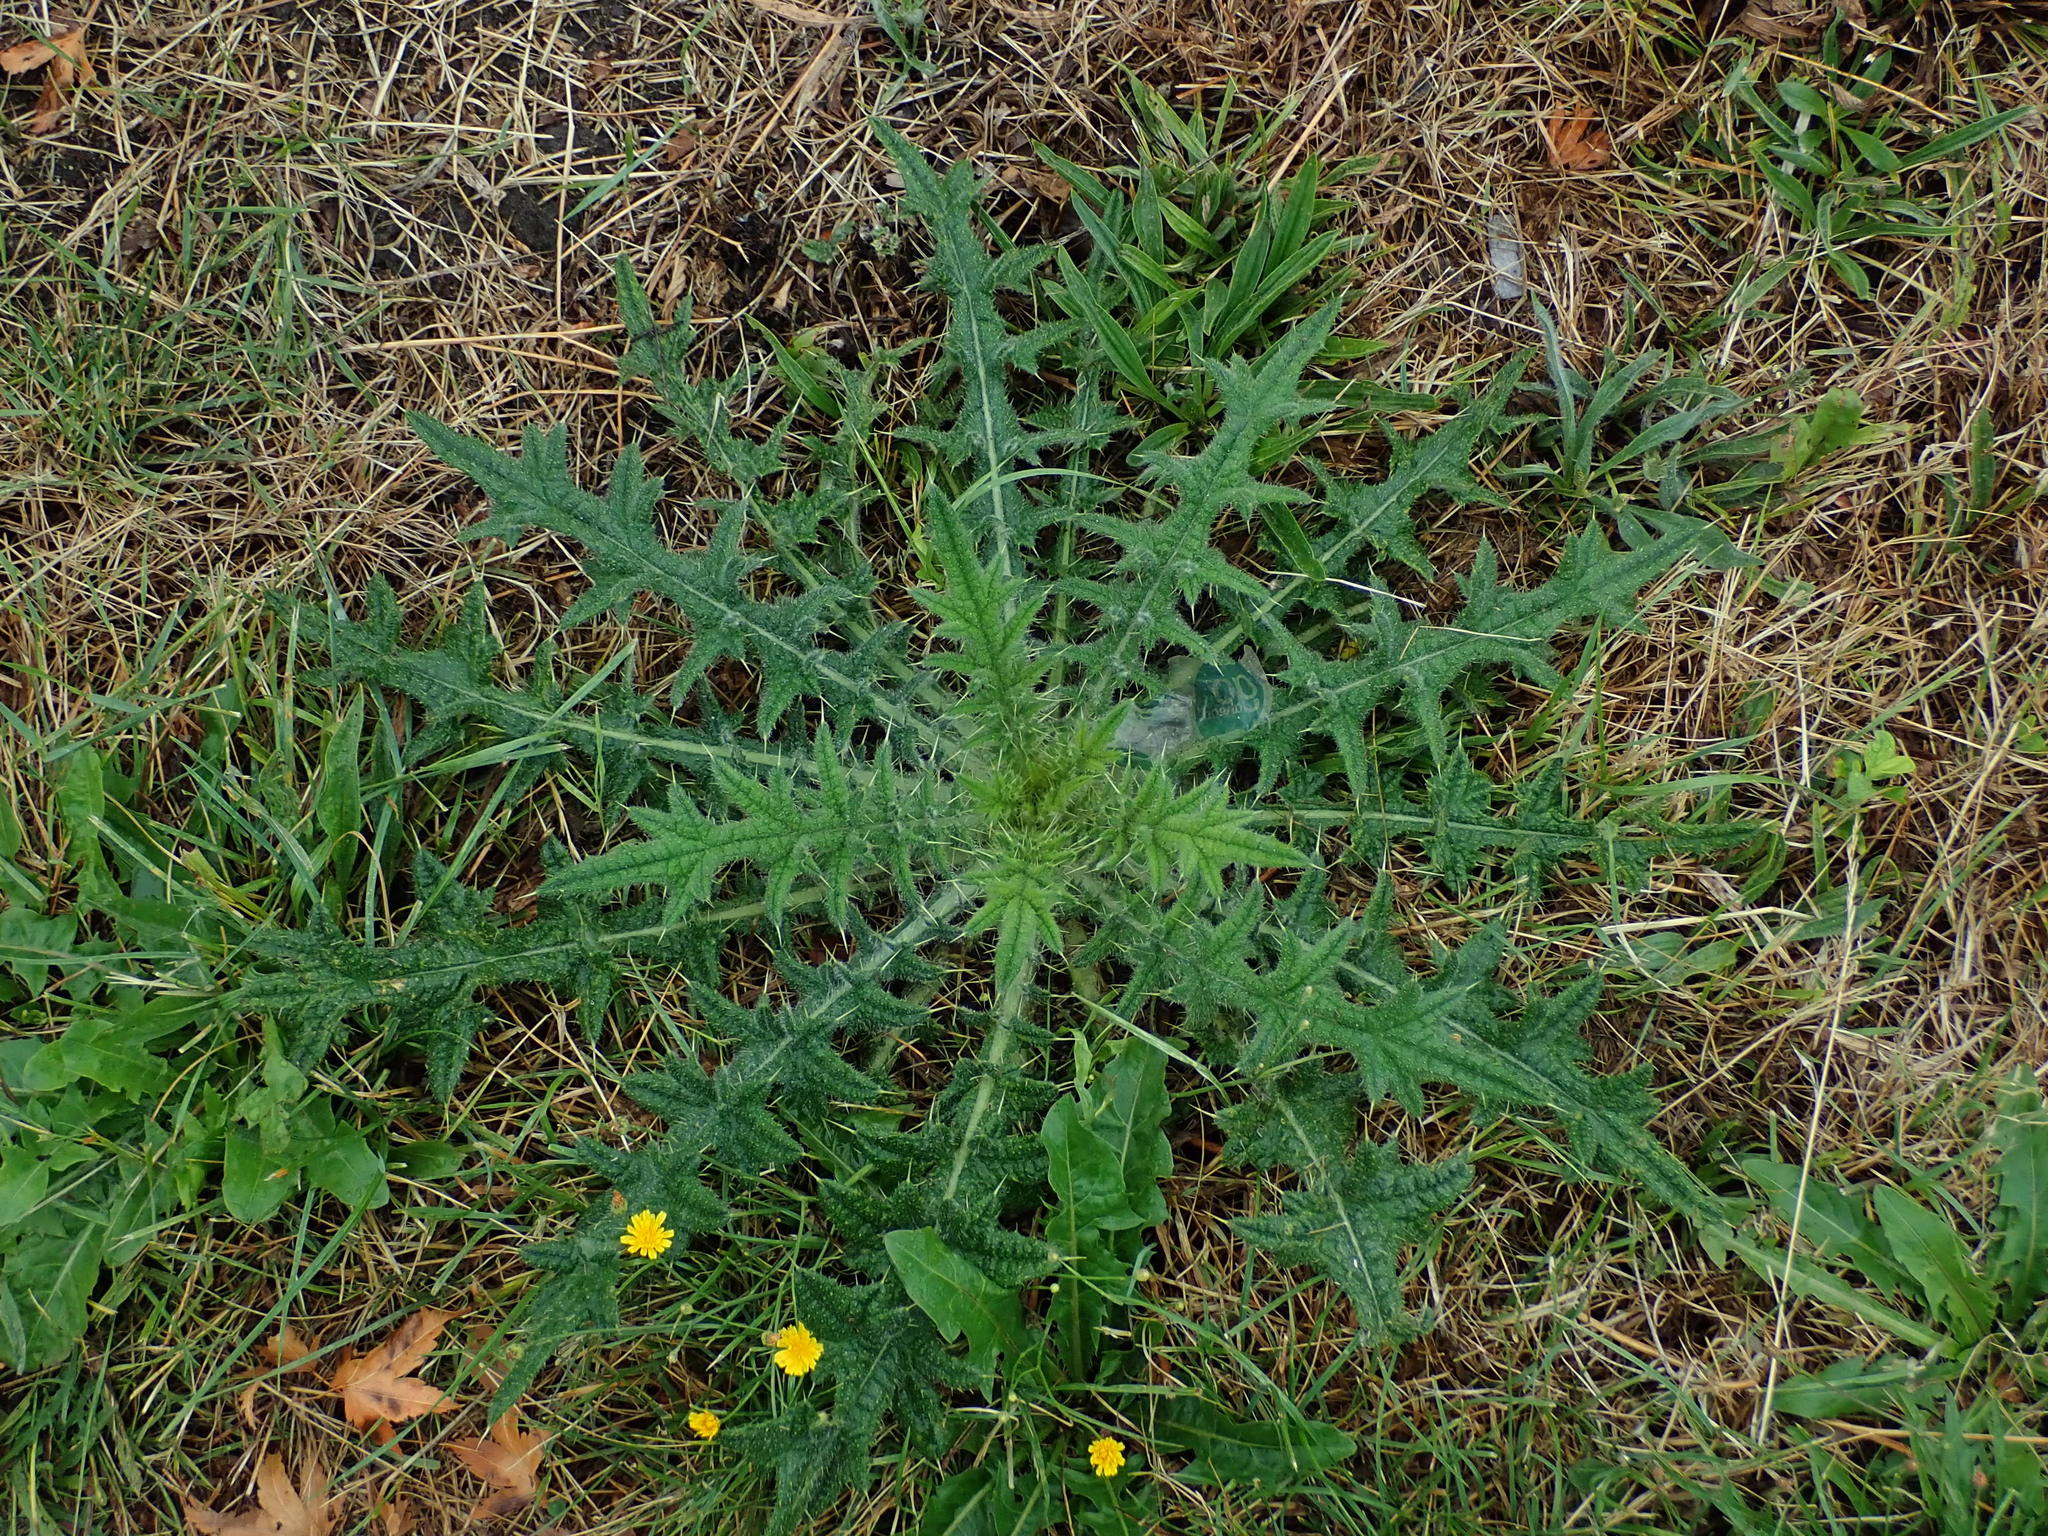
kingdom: Plantae
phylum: Tracheophyta
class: Magnoliopsida
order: Asterales
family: Asteraceae
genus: Cirsium
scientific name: Cirsium vulgare
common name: Bull thistle
